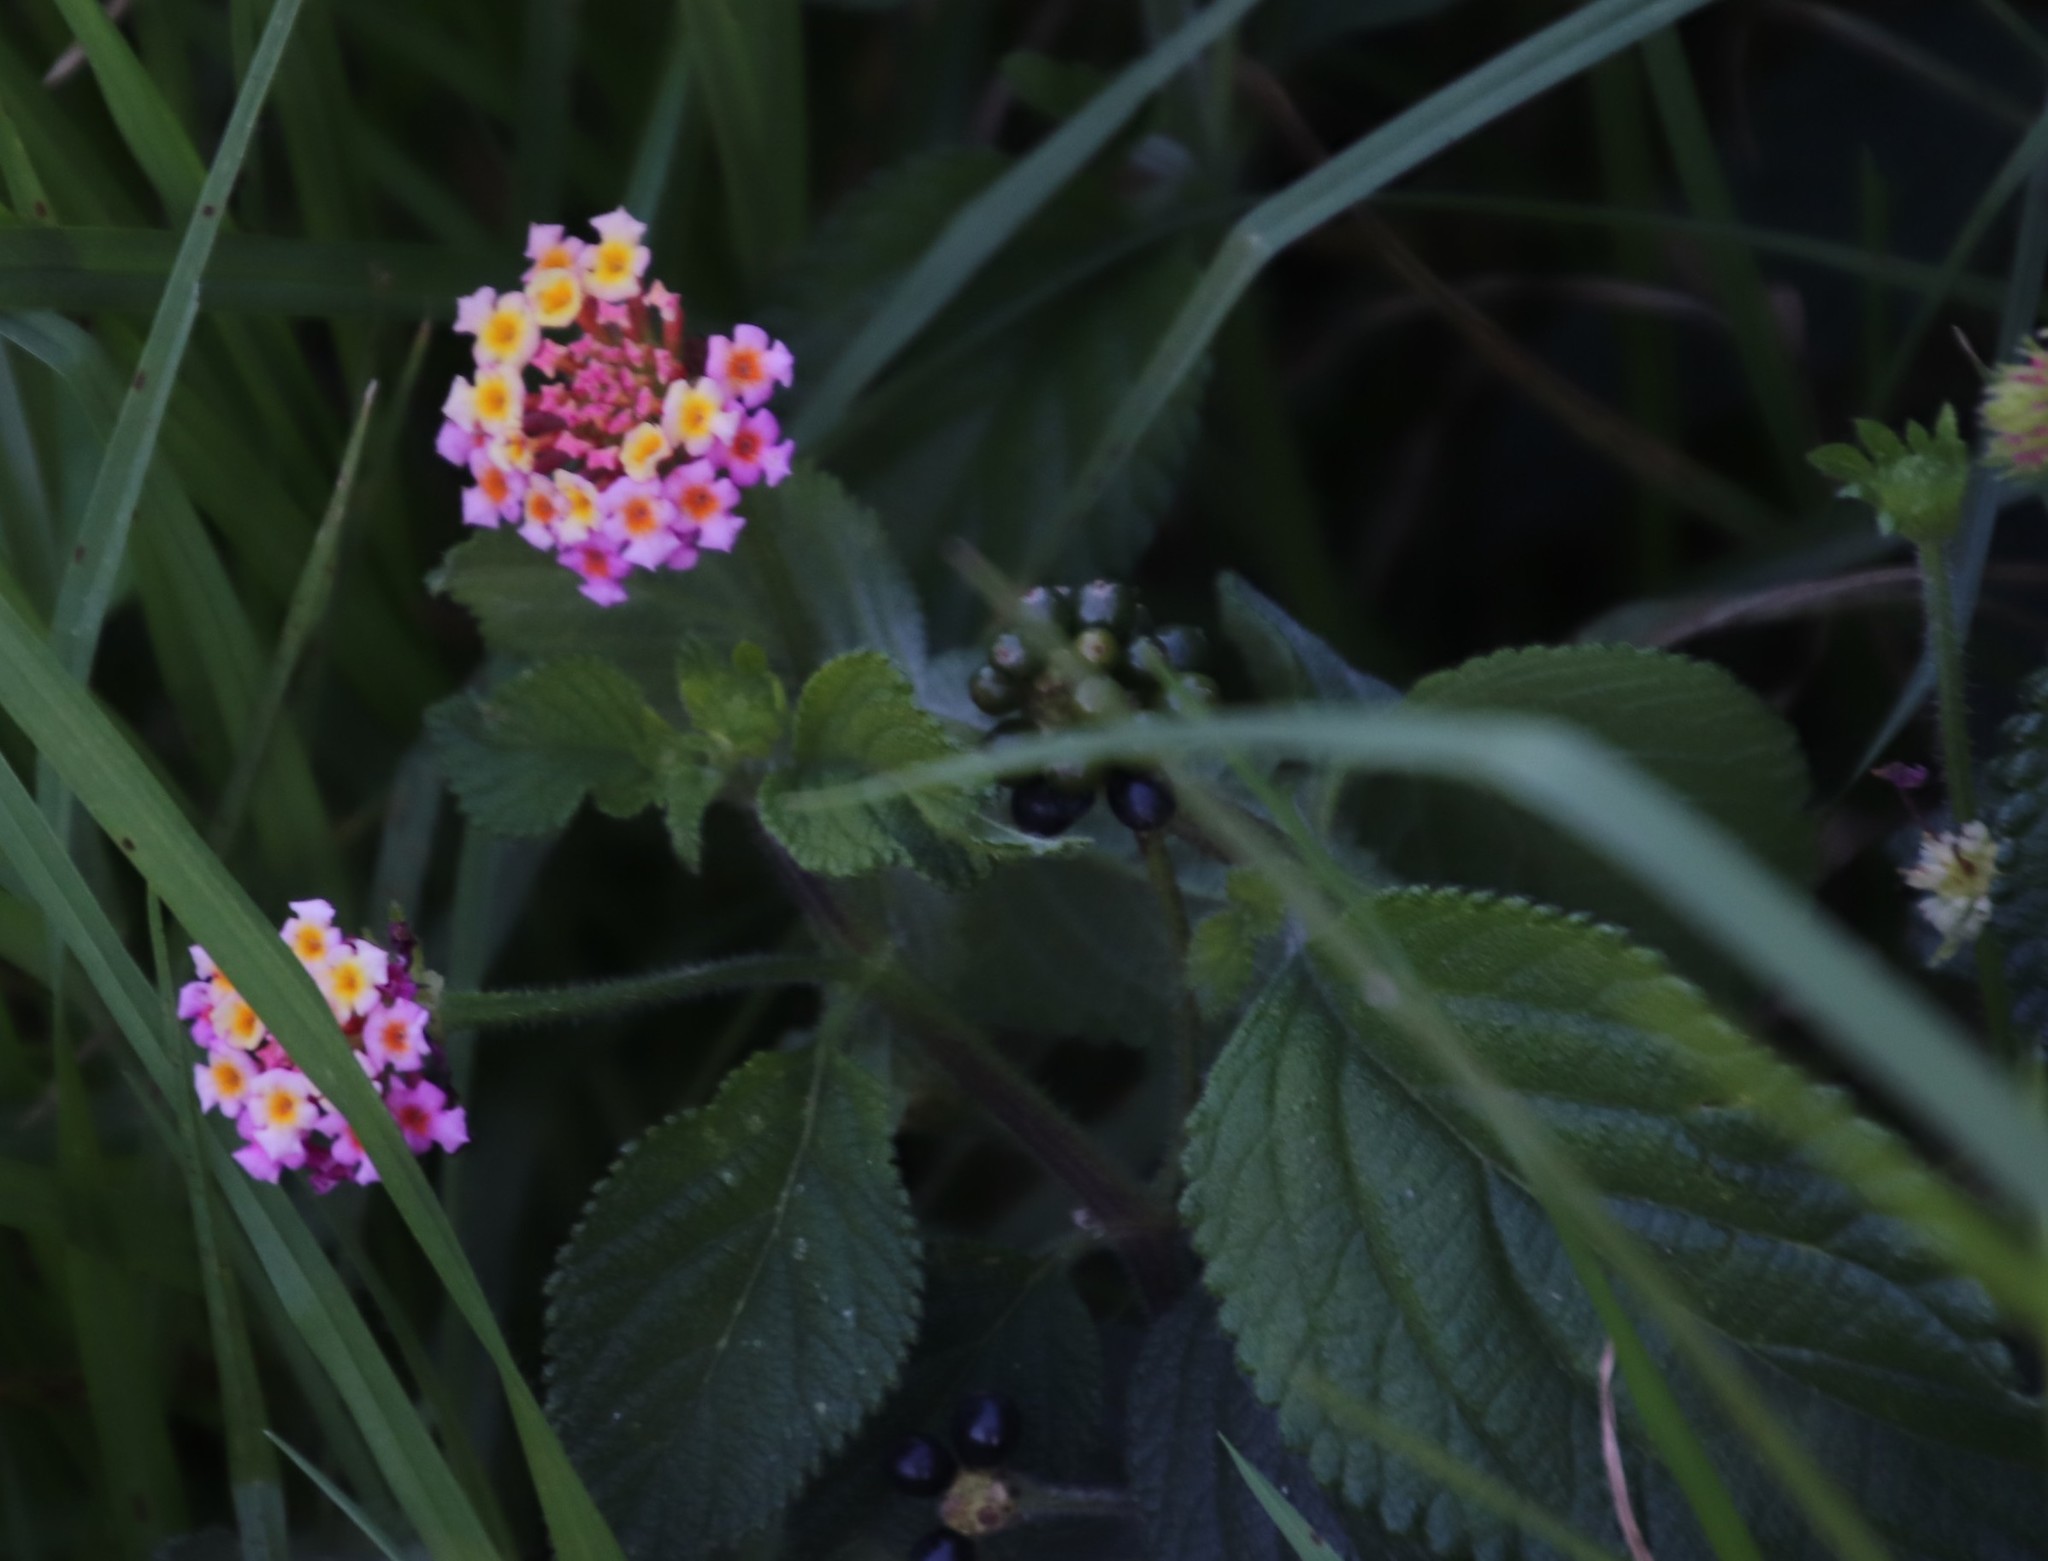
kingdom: Plantae
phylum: Tracheophyta
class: Magnoliopsida
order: Lamiales
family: Verbenaceae
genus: Lantana
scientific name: Lantana camara
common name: Lantana
